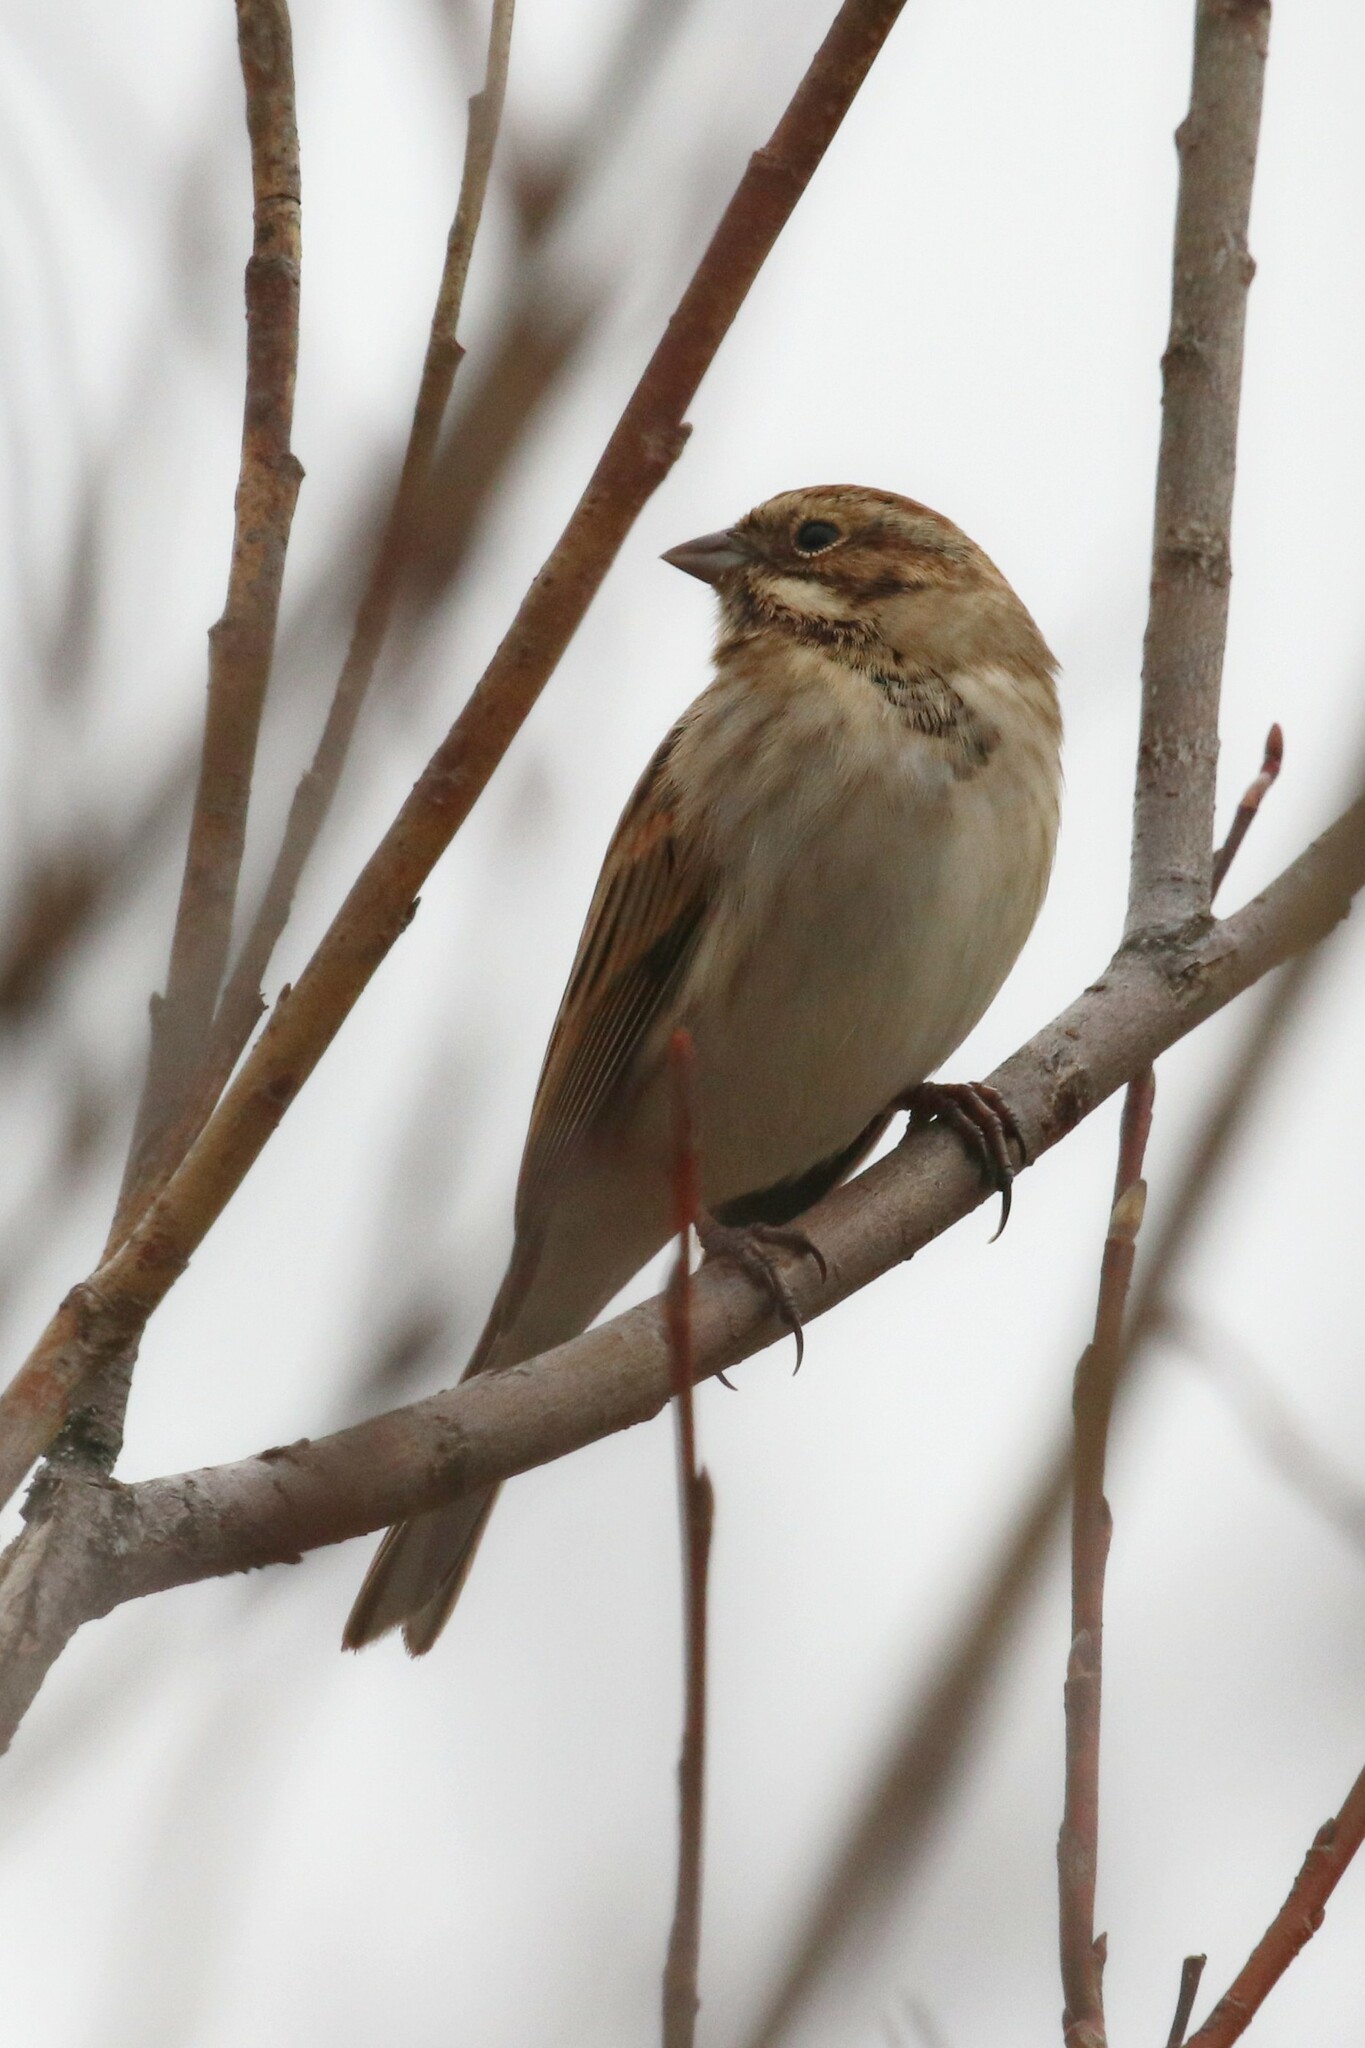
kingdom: Animalia
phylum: Chordata
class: Aves
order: Passeriformes
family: Emberizidae
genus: Emberiza
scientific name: Emberiza schoeniclus
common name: Reed bunting
